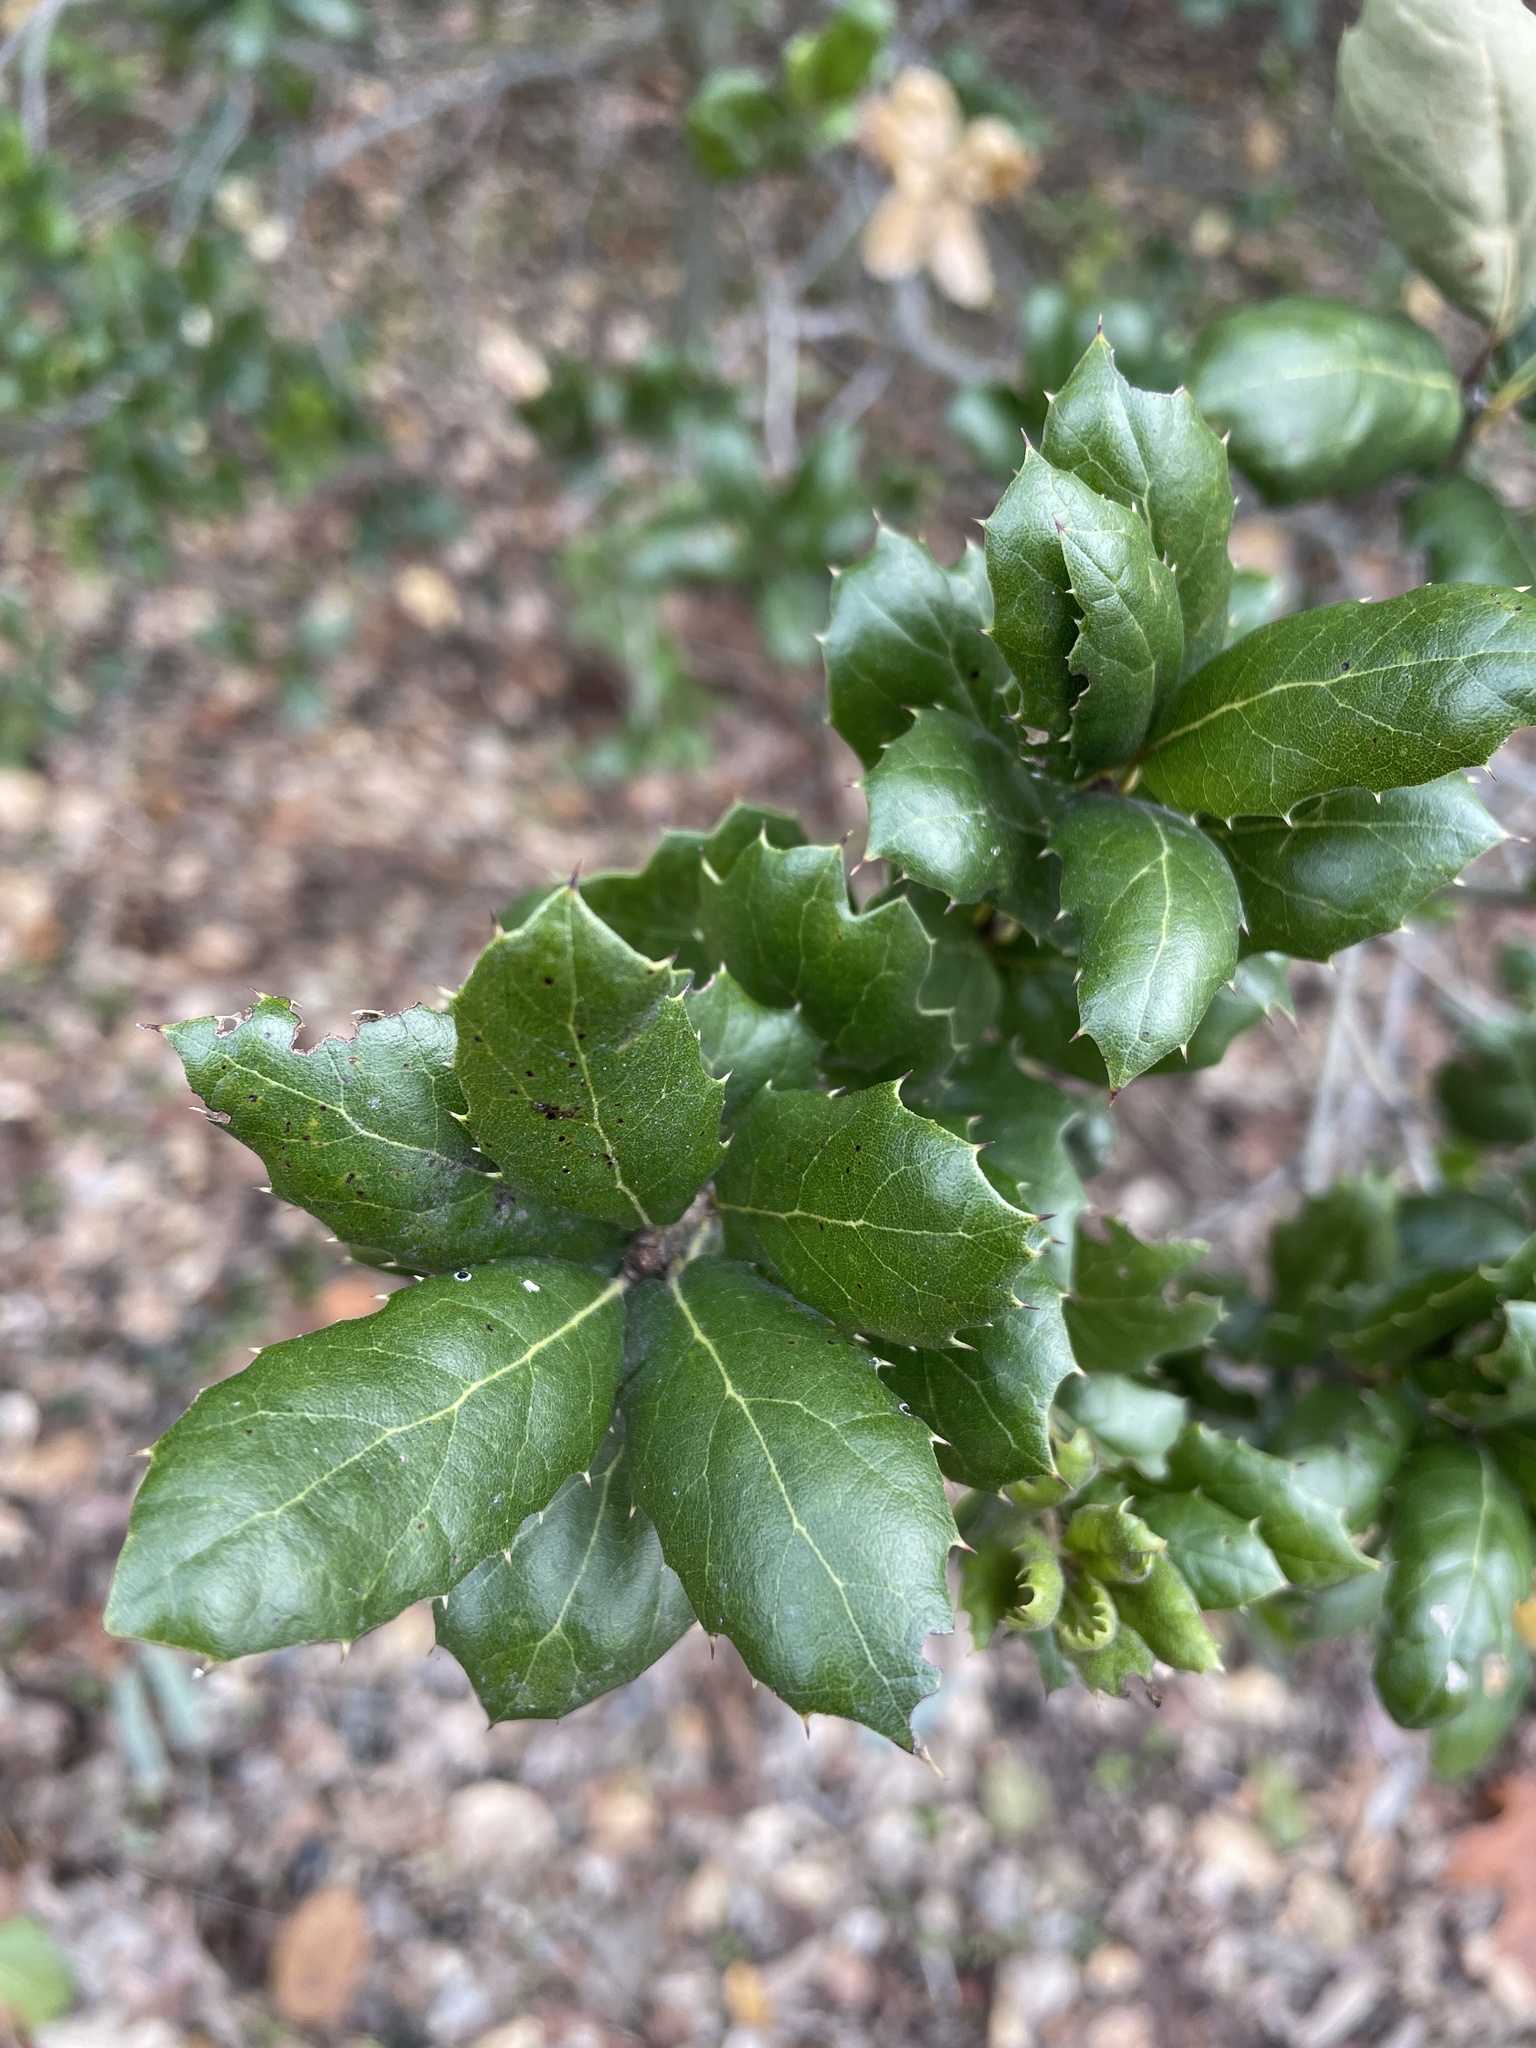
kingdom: Plantae
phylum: Tracheophyta
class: Magnoliopsida
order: Fagales
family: Fagaceae
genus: Quercus
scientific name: Quercus agrifolia
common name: California live oak
